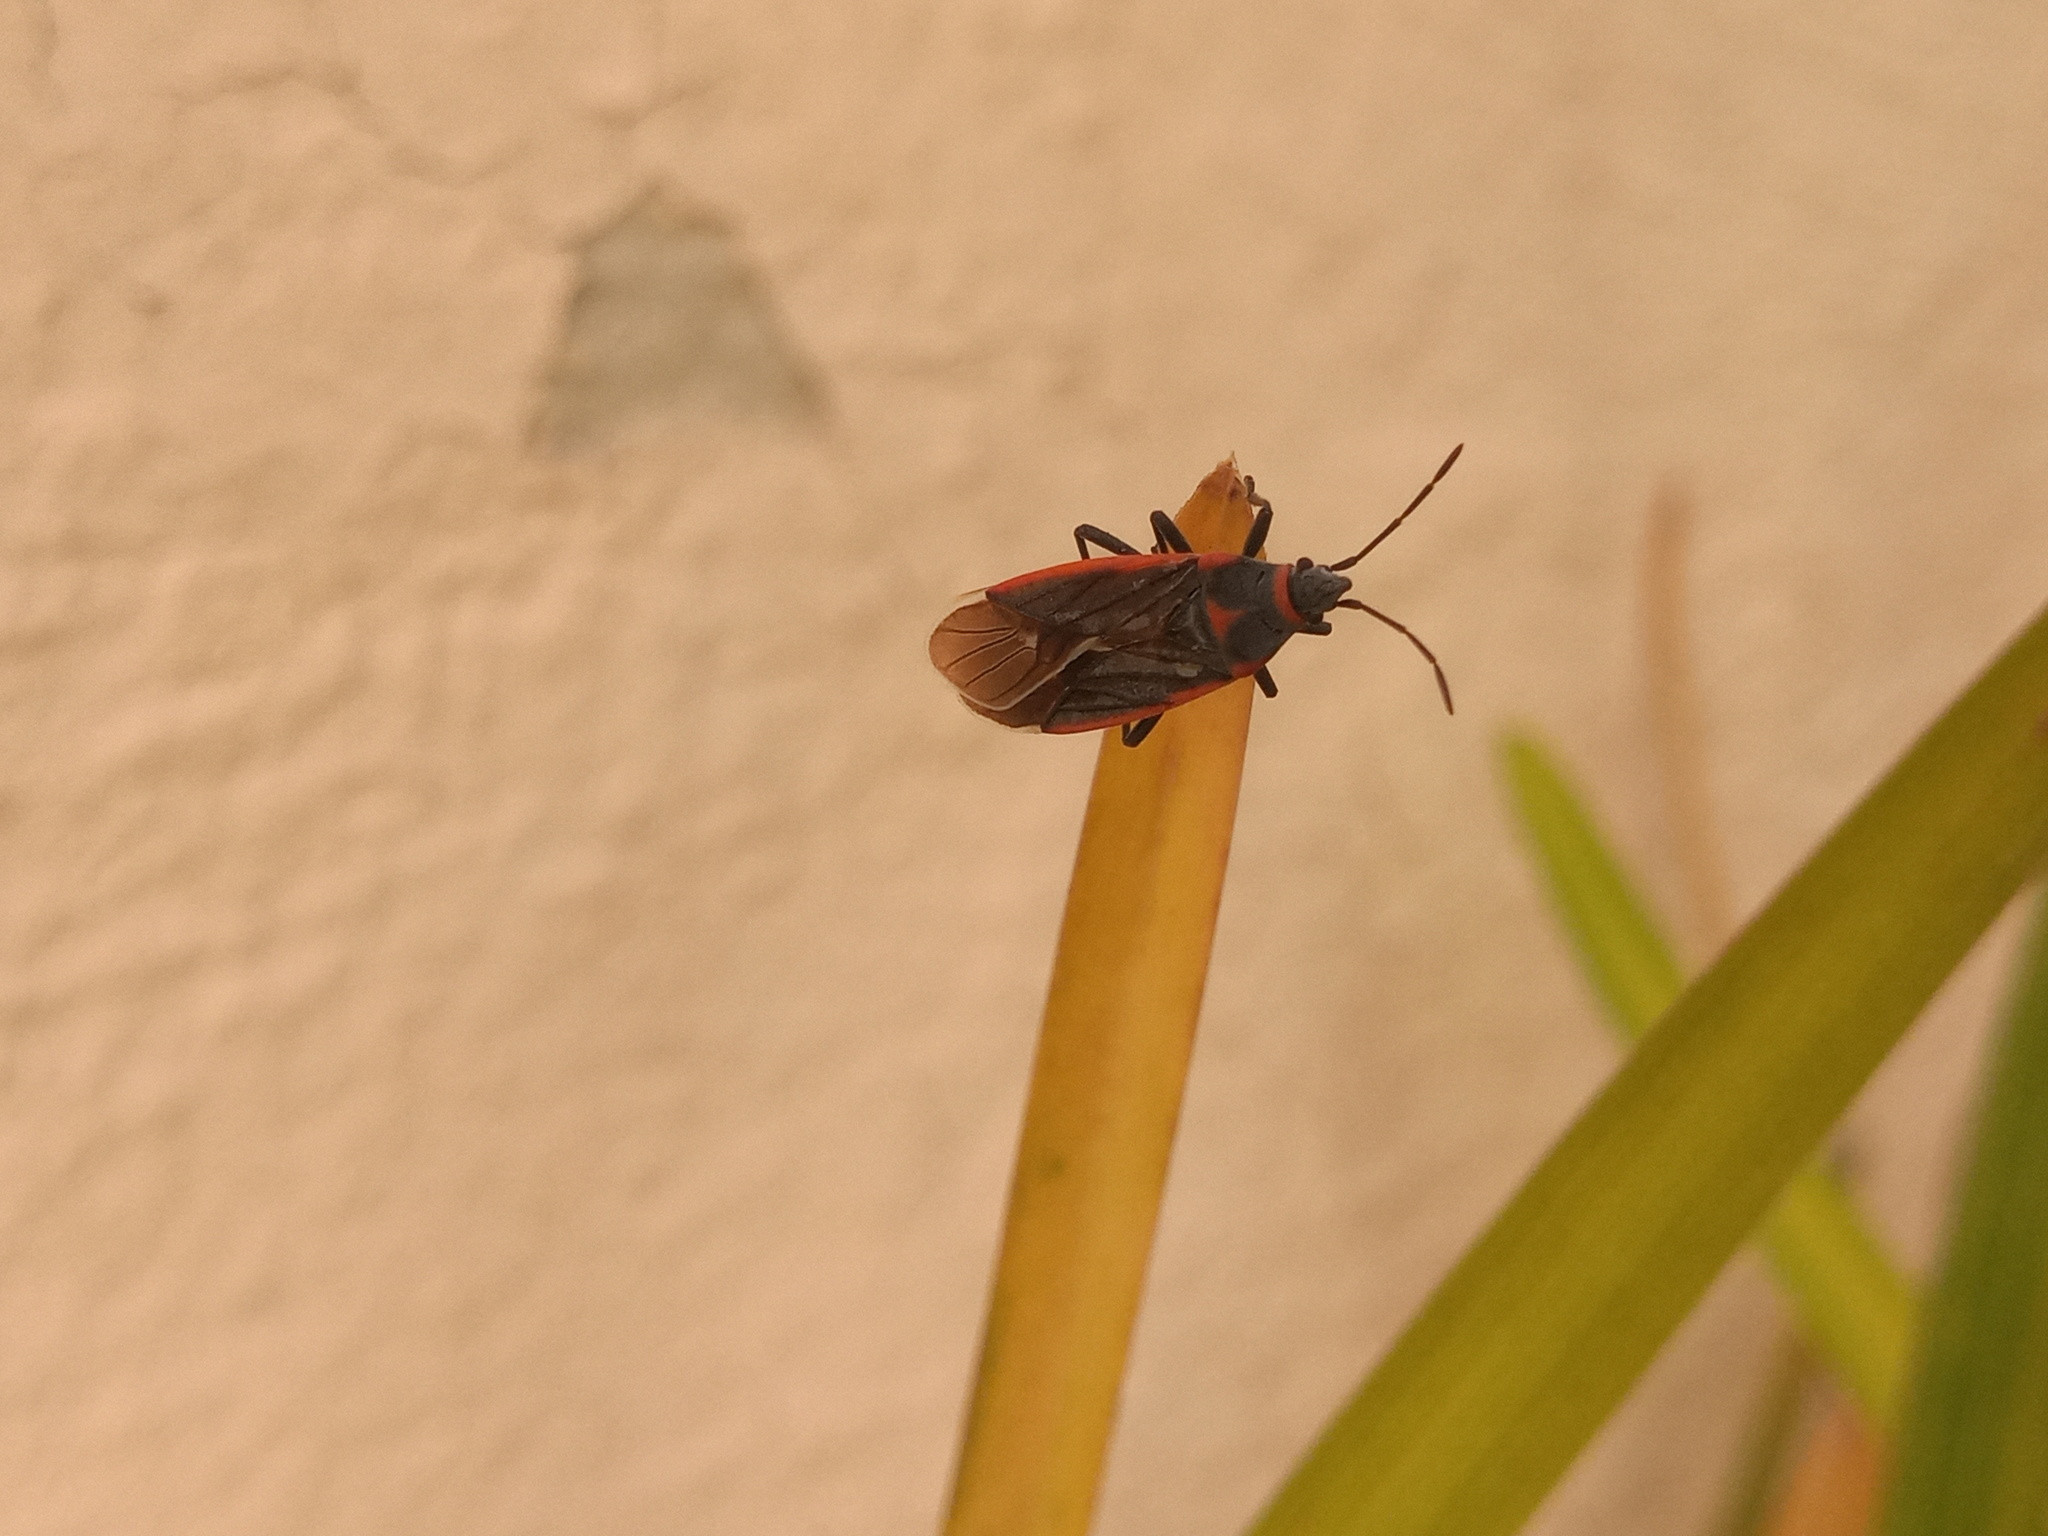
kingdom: Animalia
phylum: Arthropoda
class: Insecta
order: Hemiptera
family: Lygaeidae
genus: Melacoryphus
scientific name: Melacoryphus lateralis
